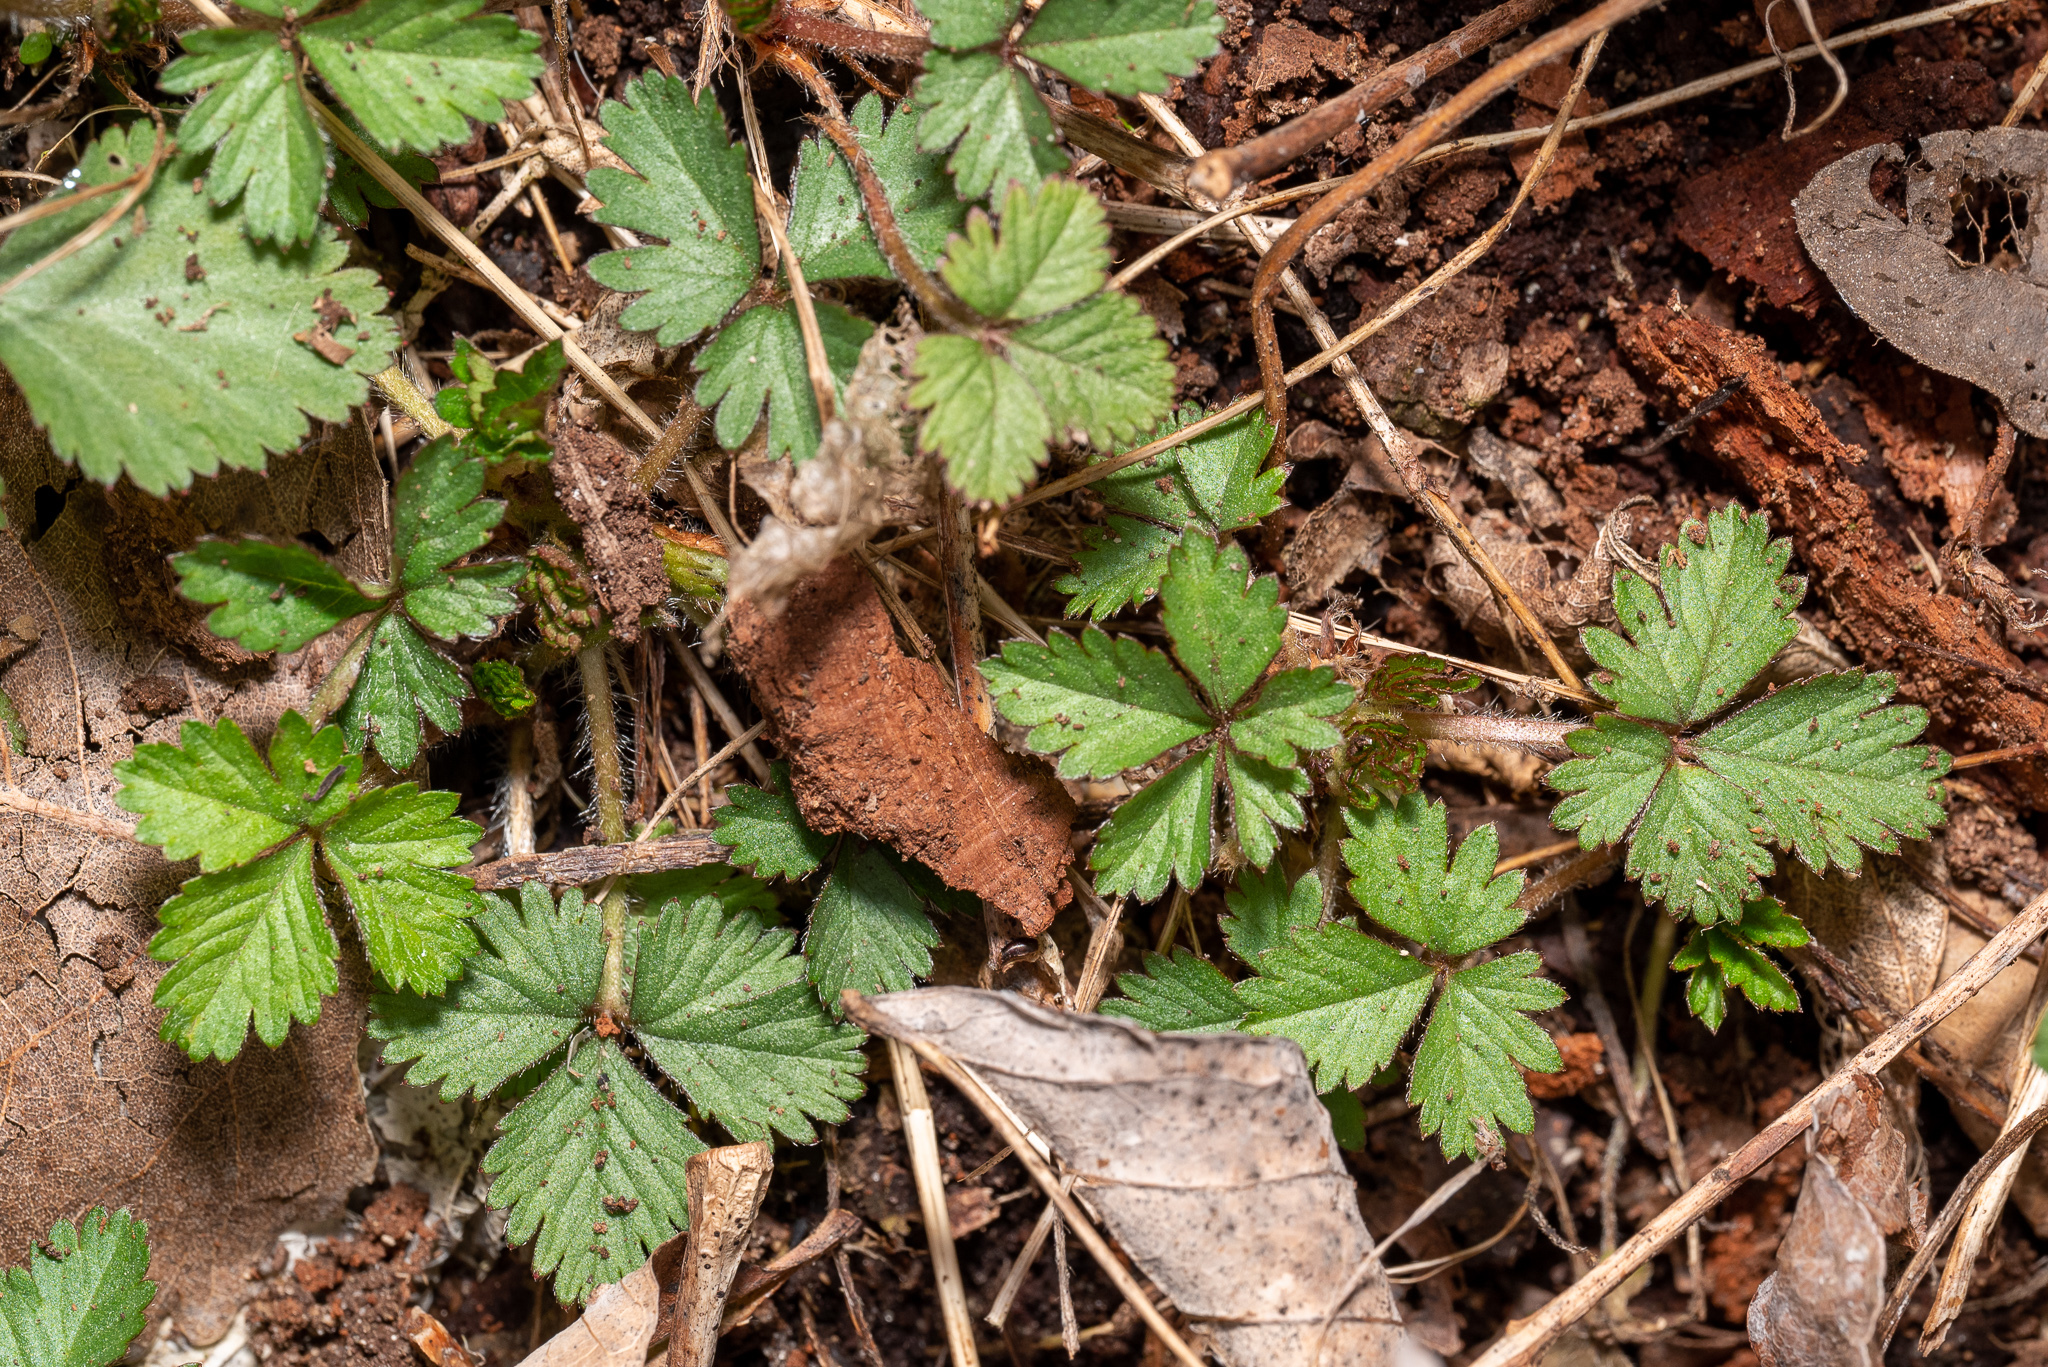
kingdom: Plantae
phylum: Tracheophyta
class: Magnoliopsida
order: Rosales
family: Rosaceae
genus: Potentilla
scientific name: Potentilla indica
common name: Yellow-flowered strawberry
